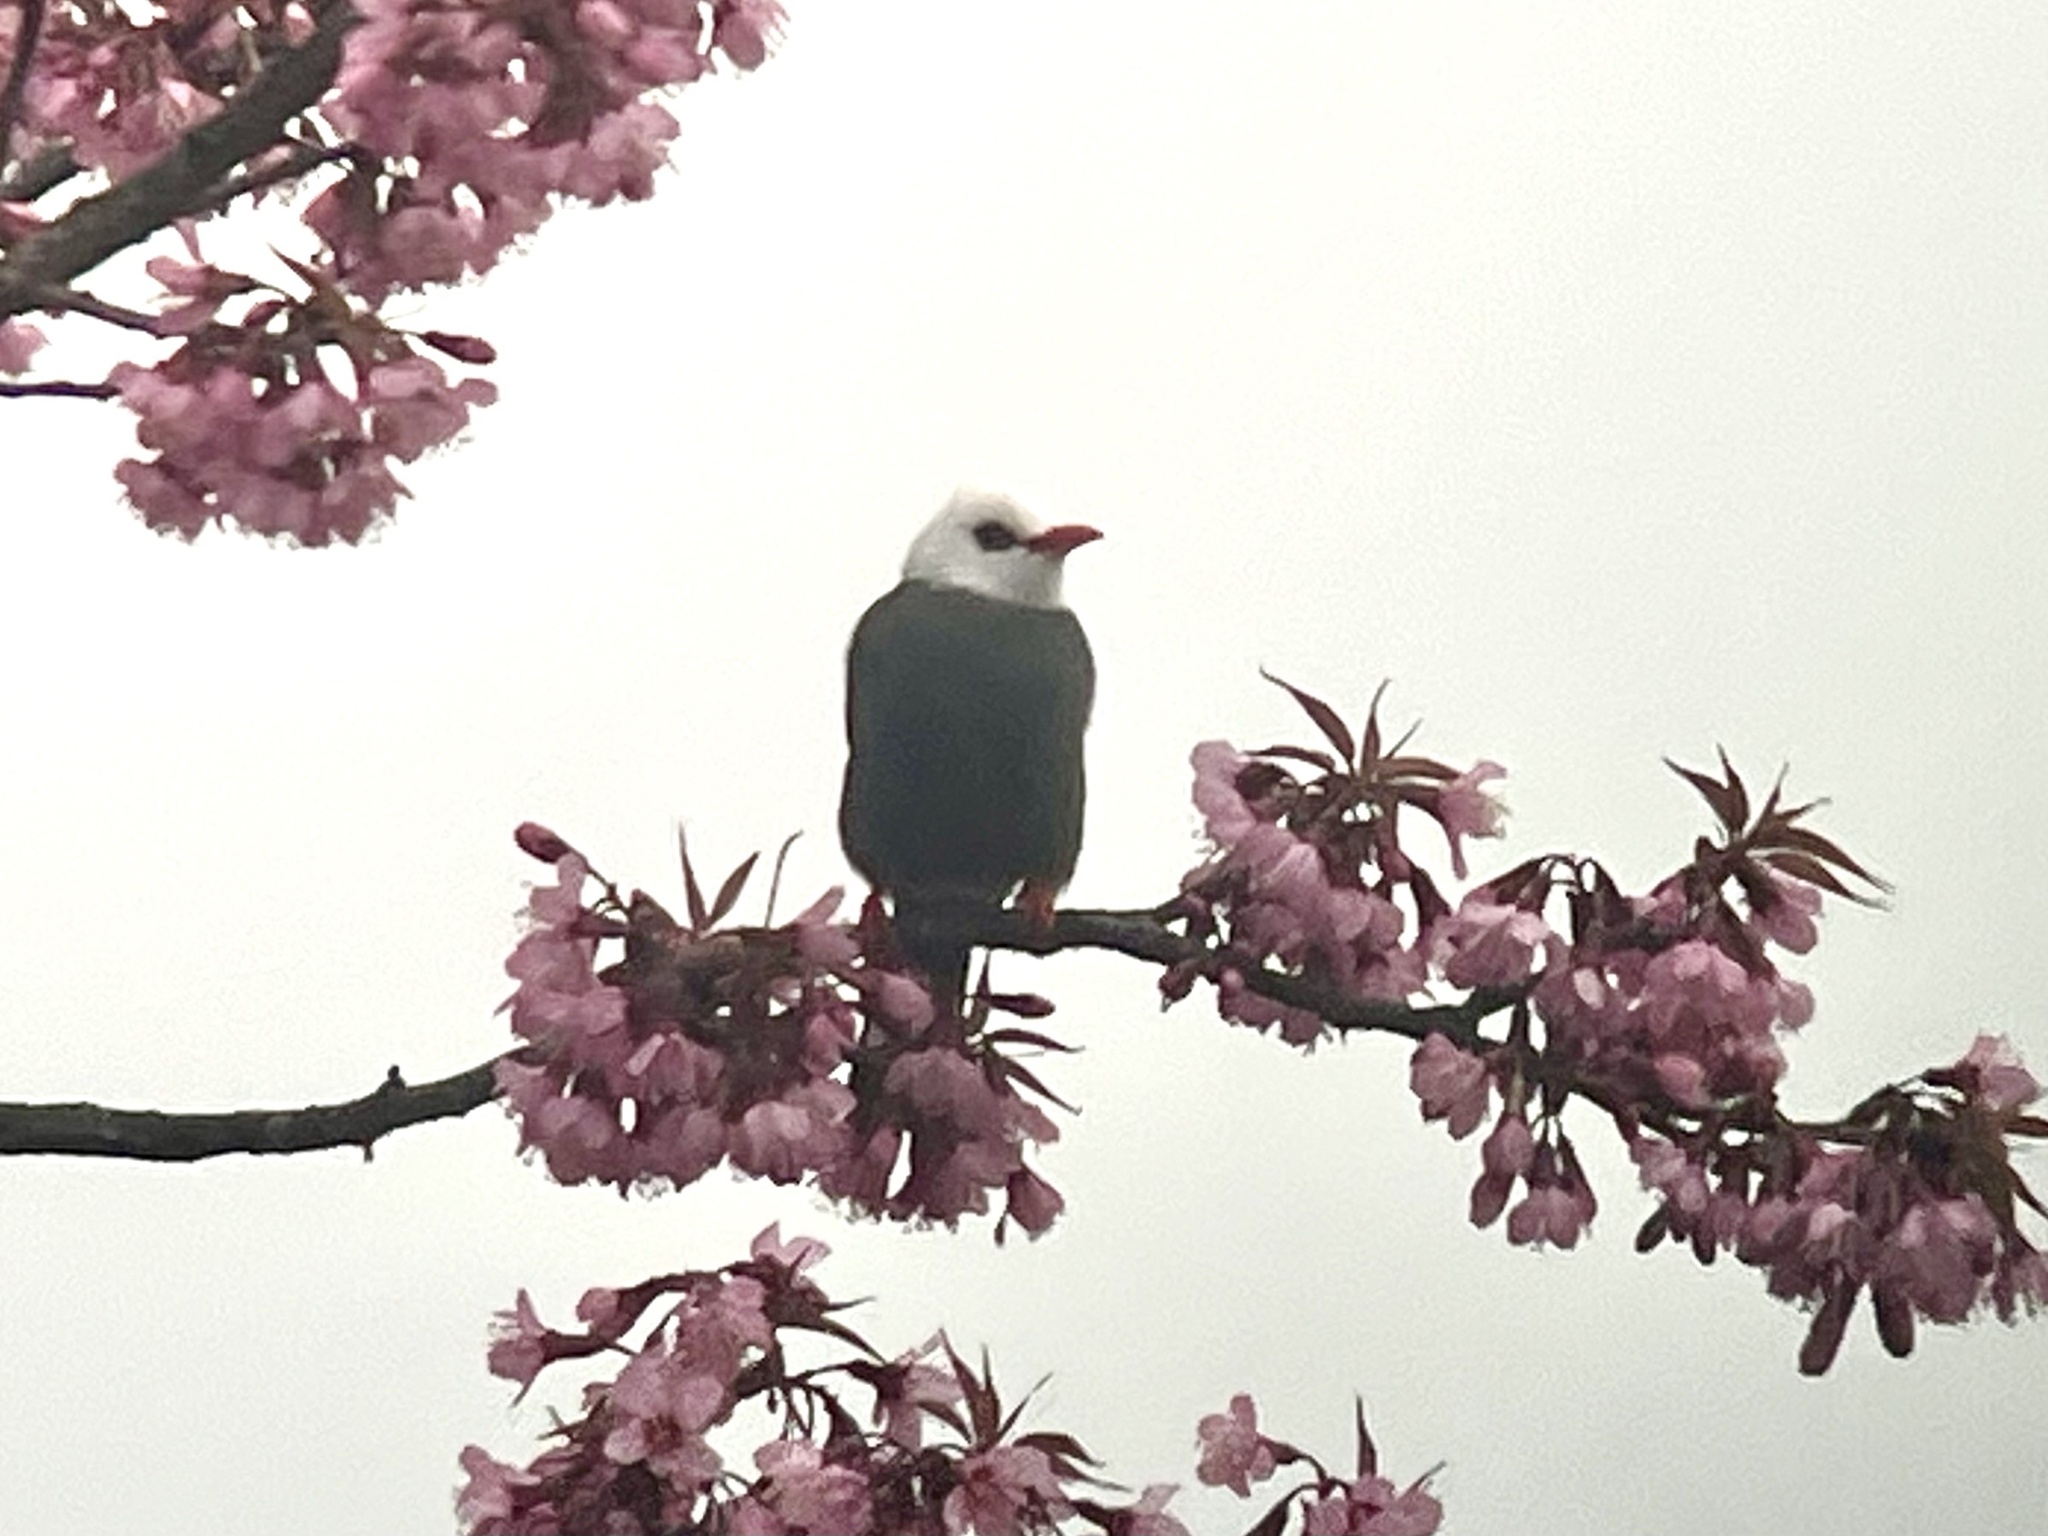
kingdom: Animalia
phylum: Chordata
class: Aves
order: Passeriformes
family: Pycnonotidae
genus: Cerasophila
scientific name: Cerasophila thompsoni
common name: White-headed bulbul
